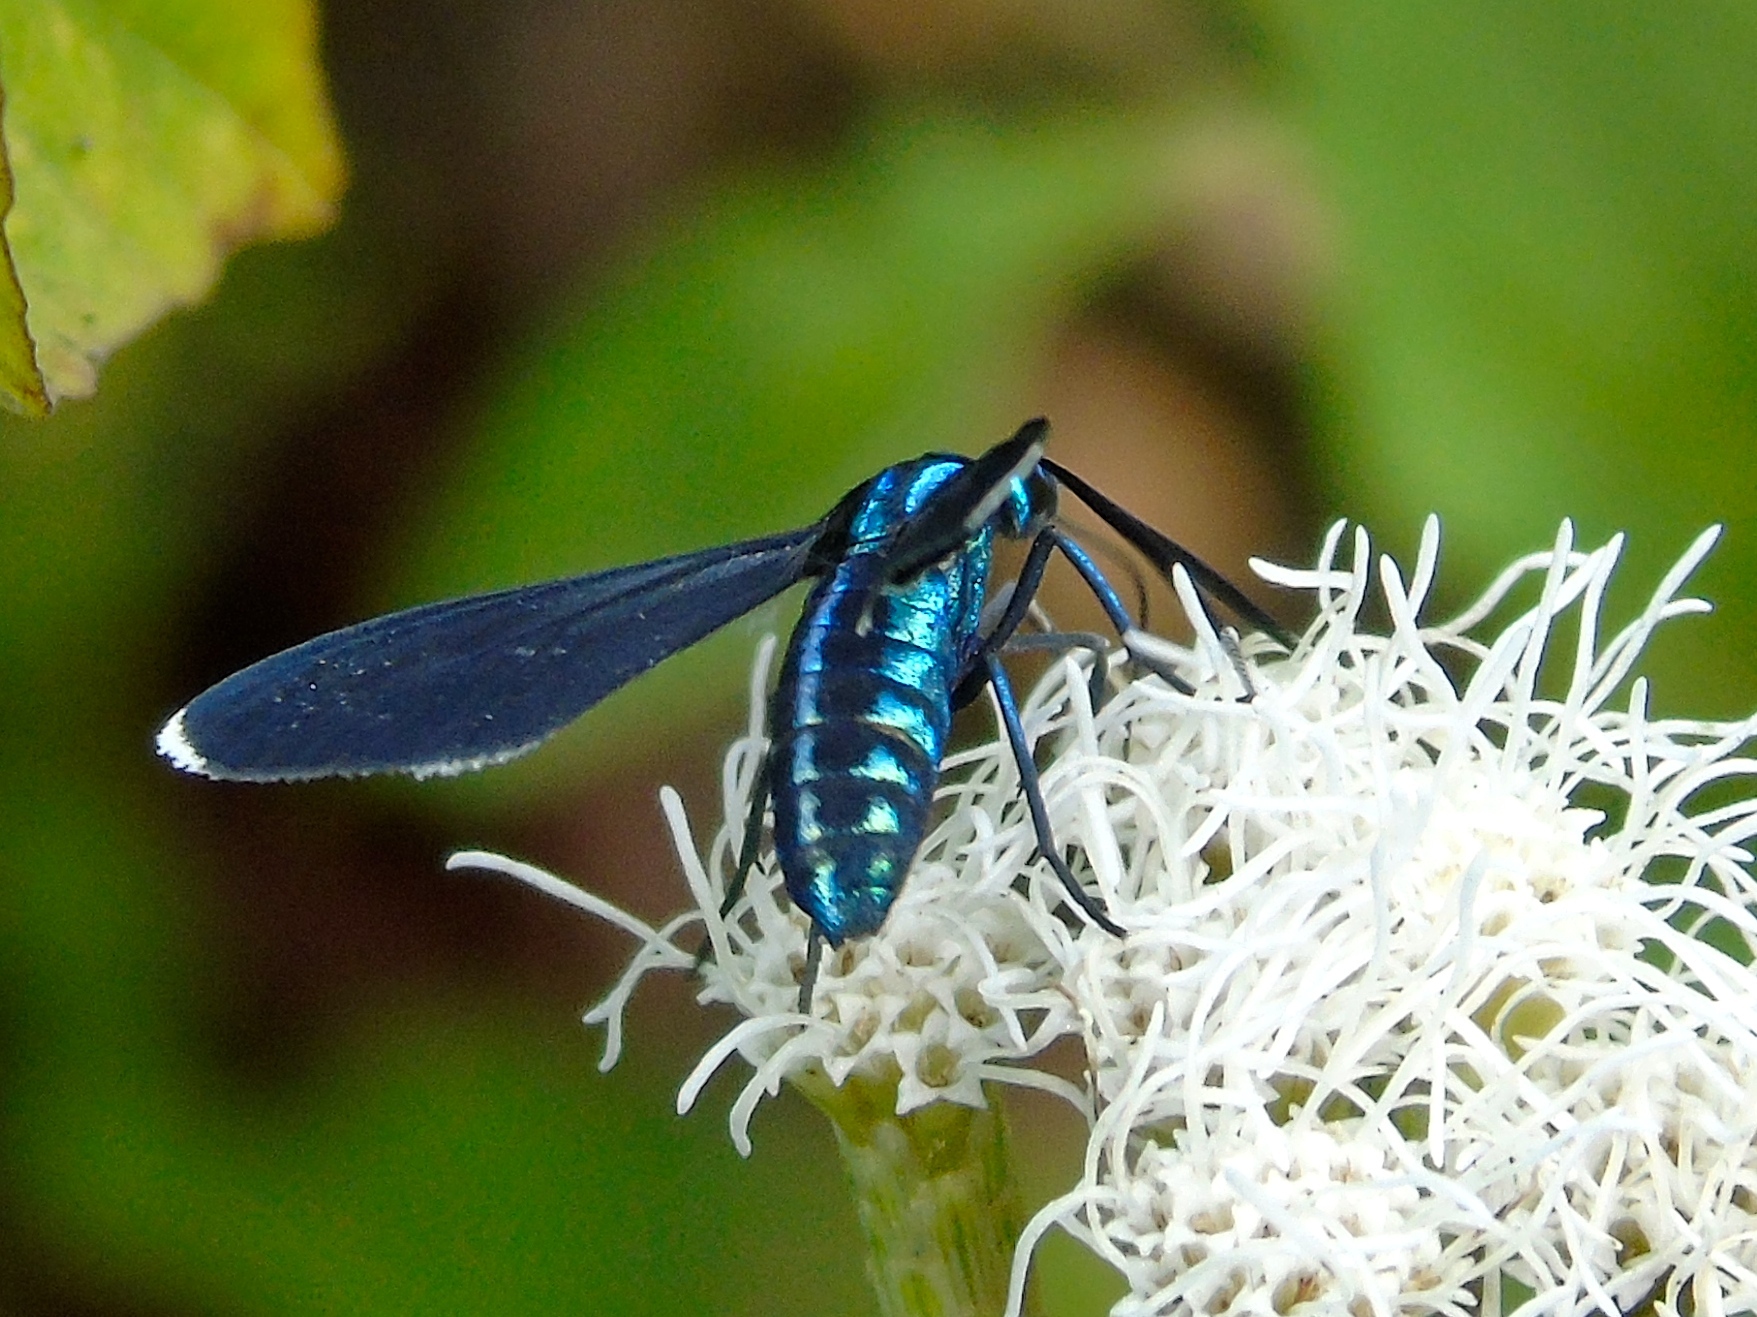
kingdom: Animalia
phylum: Arthropoda
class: Insecta
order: Lepidoptera
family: Erebidae
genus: Uranophora
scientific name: Uranophora leucotela
